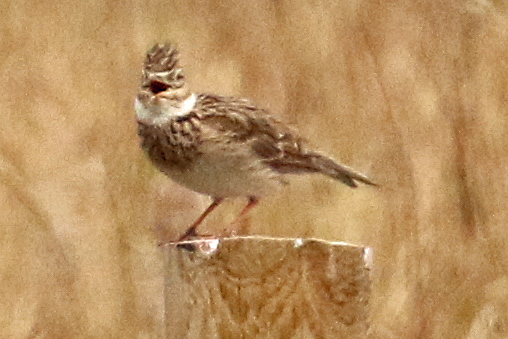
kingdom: Animalia
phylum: Chordata
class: Aves
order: Passeriformes
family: Alaudidae
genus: Alauda
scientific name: Alauda arvensis
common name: Eurasian skylark
